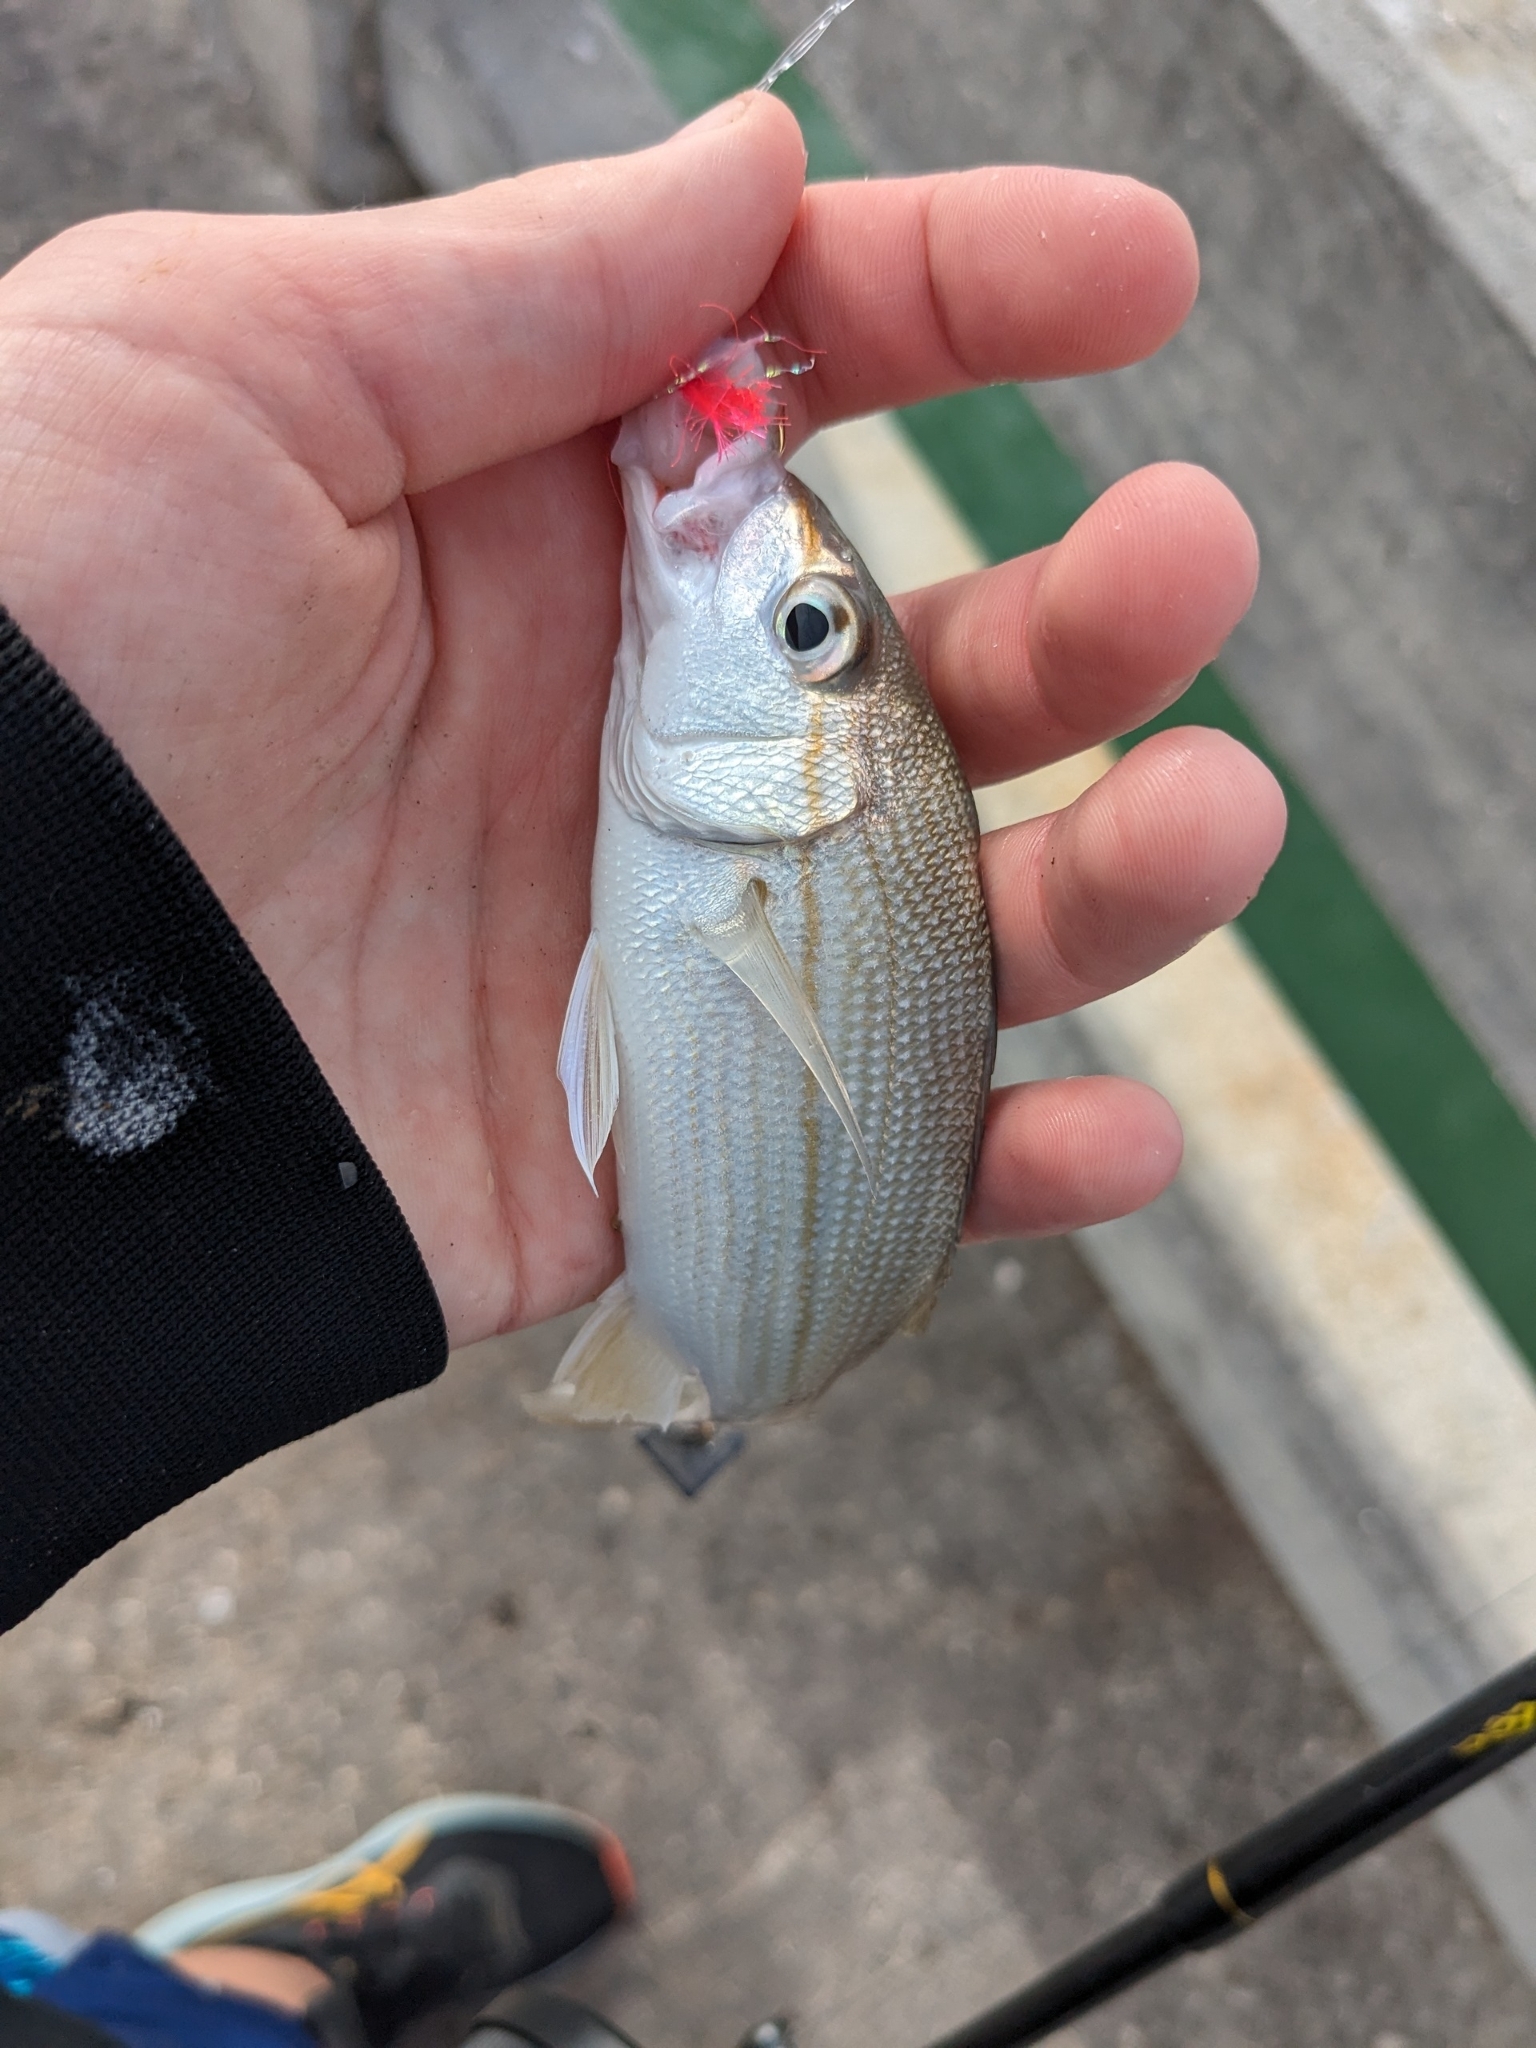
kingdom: Animalia
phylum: Chordata
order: Perciformes
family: Haemulidae
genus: Haemulon
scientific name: Haemulon aurolineatum
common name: Tomtate
